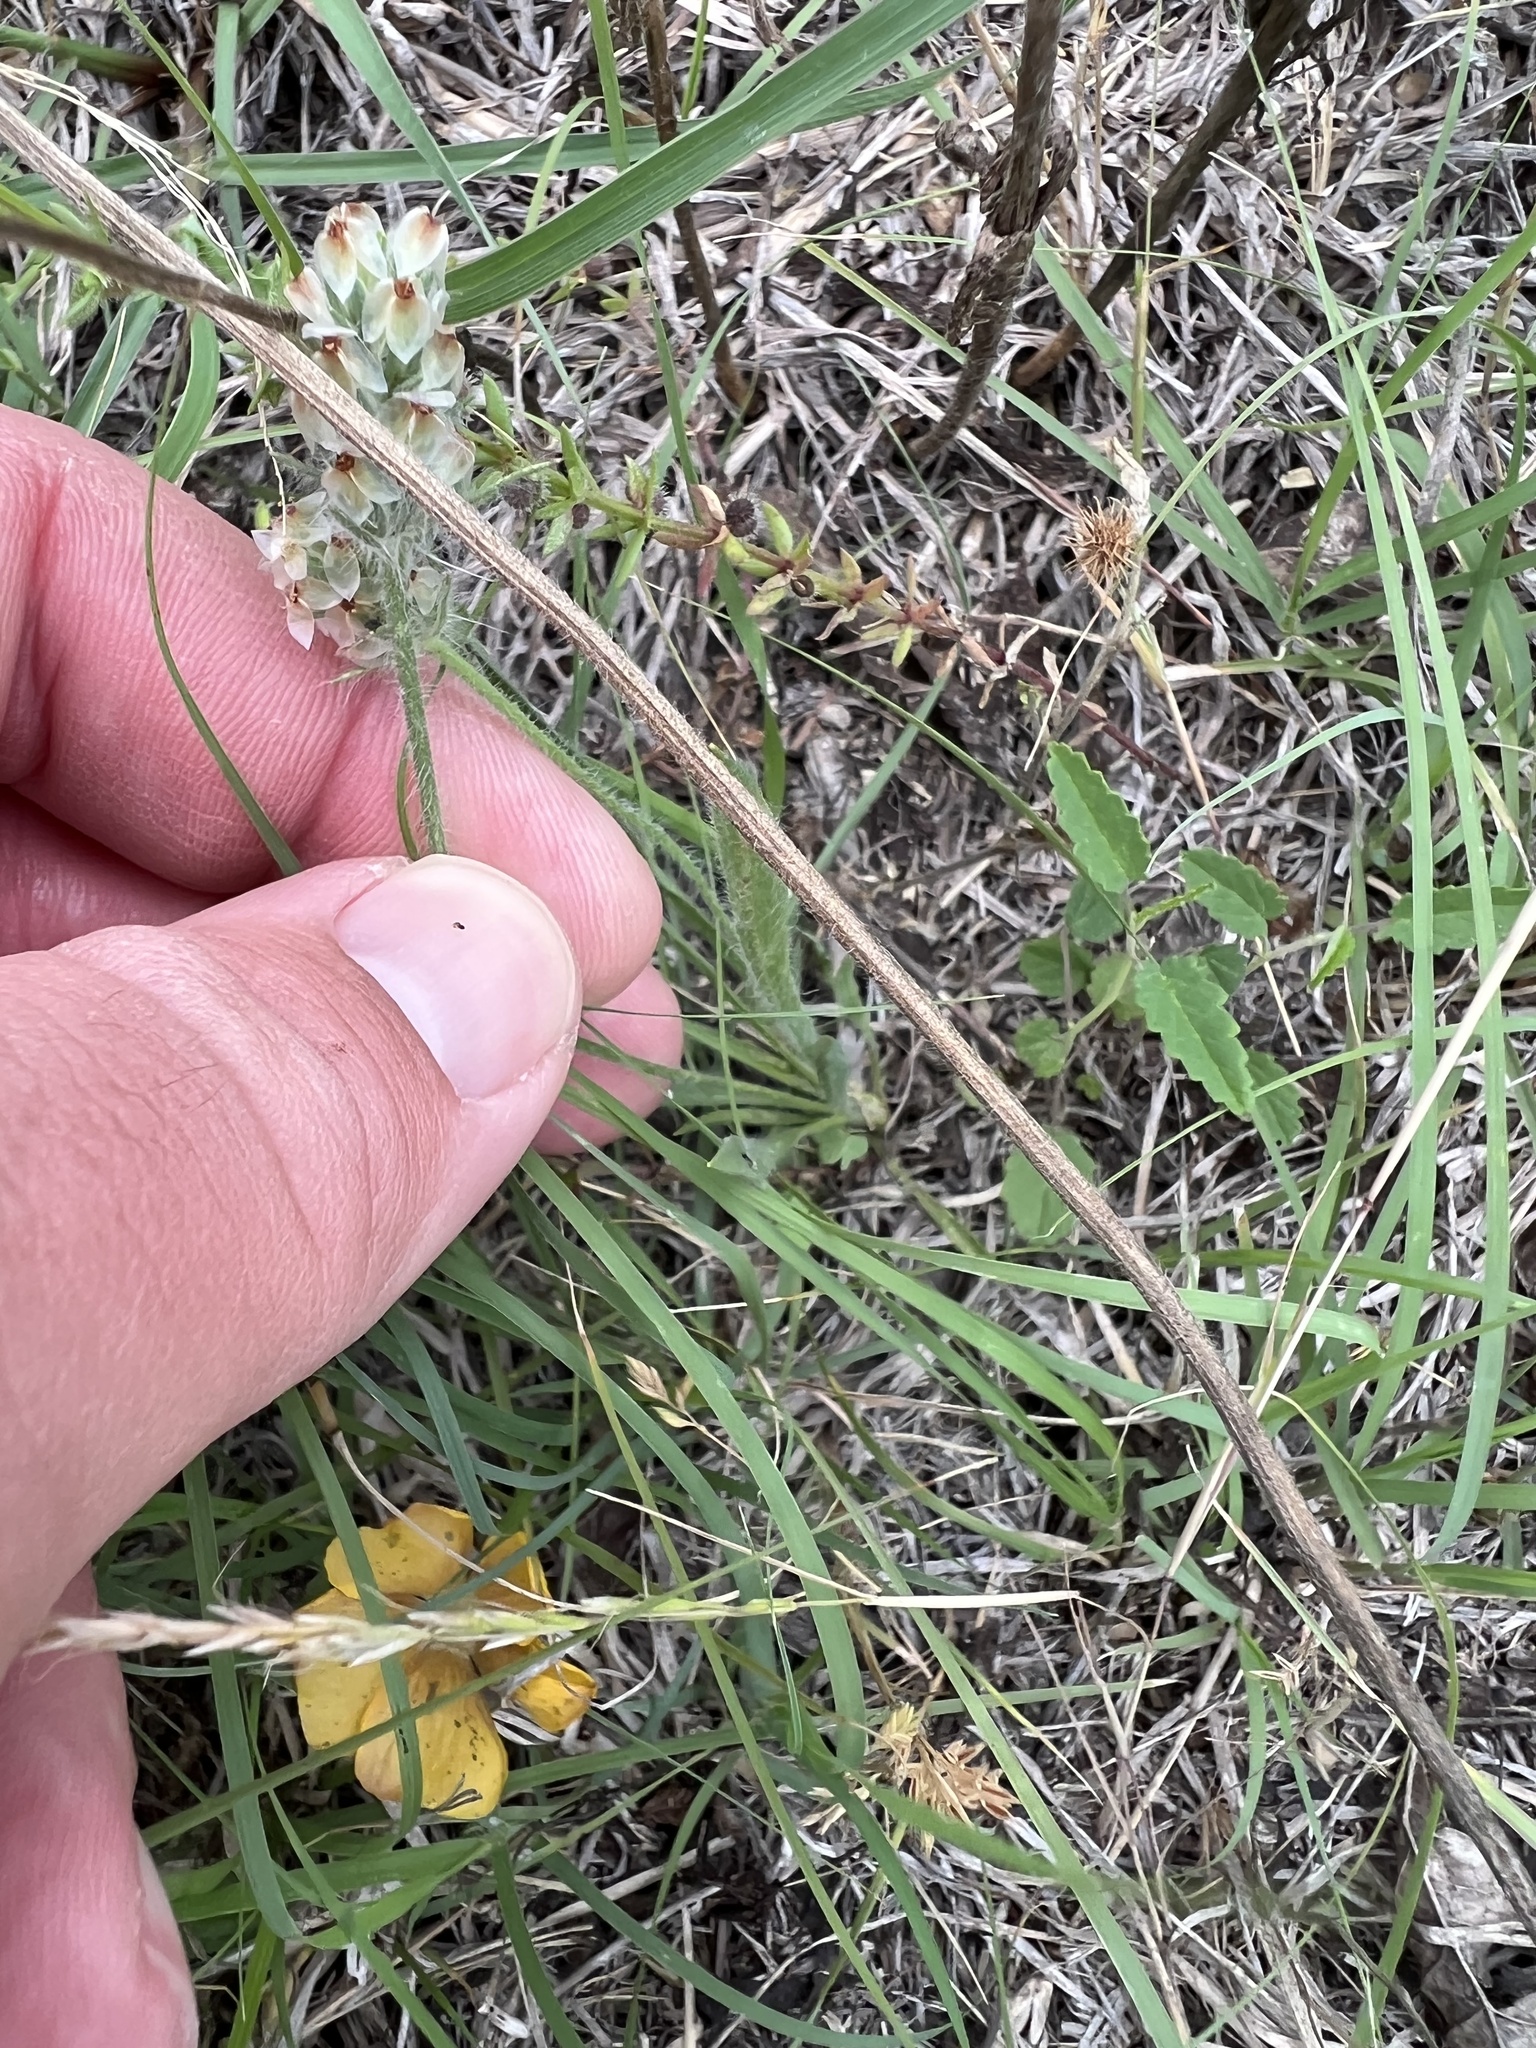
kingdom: Plantae
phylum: Tracheophyta
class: Magnoliopsida
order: Lamiales
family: Plantaginaceae
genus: Plantago
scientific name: Plantago helleri
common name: Heller's plantain
